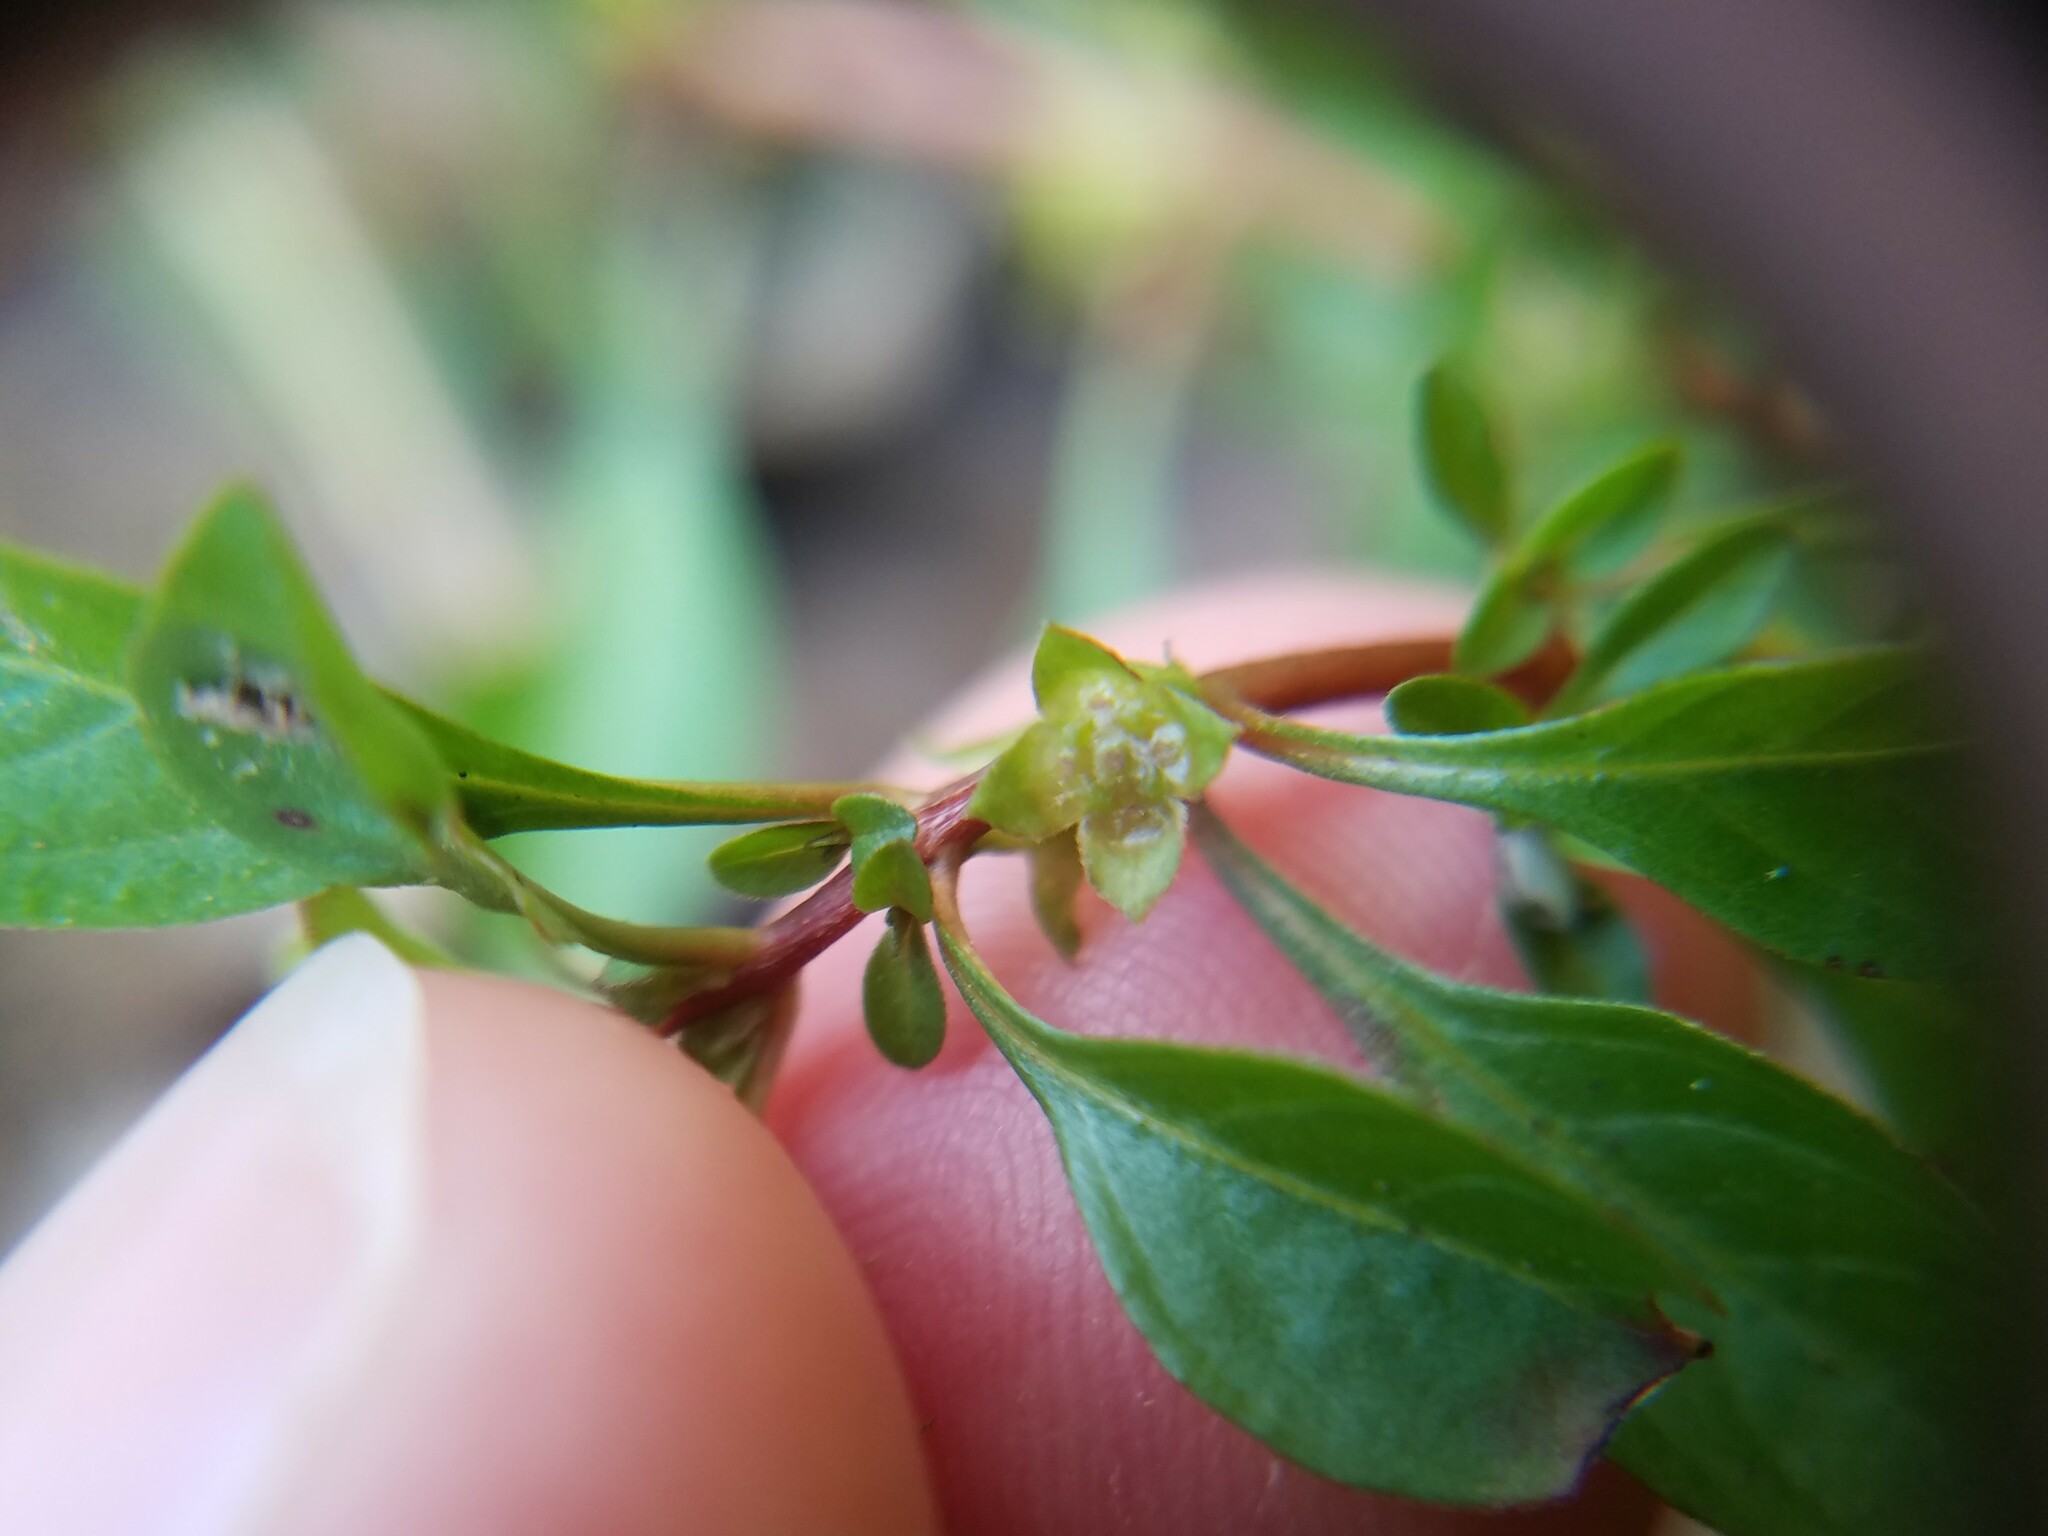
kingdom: Plantae
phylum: Tracheophyta
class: Magnoliopsida
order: Myrtales
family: Onagraceae
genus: Ludwigia
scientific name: Ludwigia palustris
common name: Hampshire-purslane
